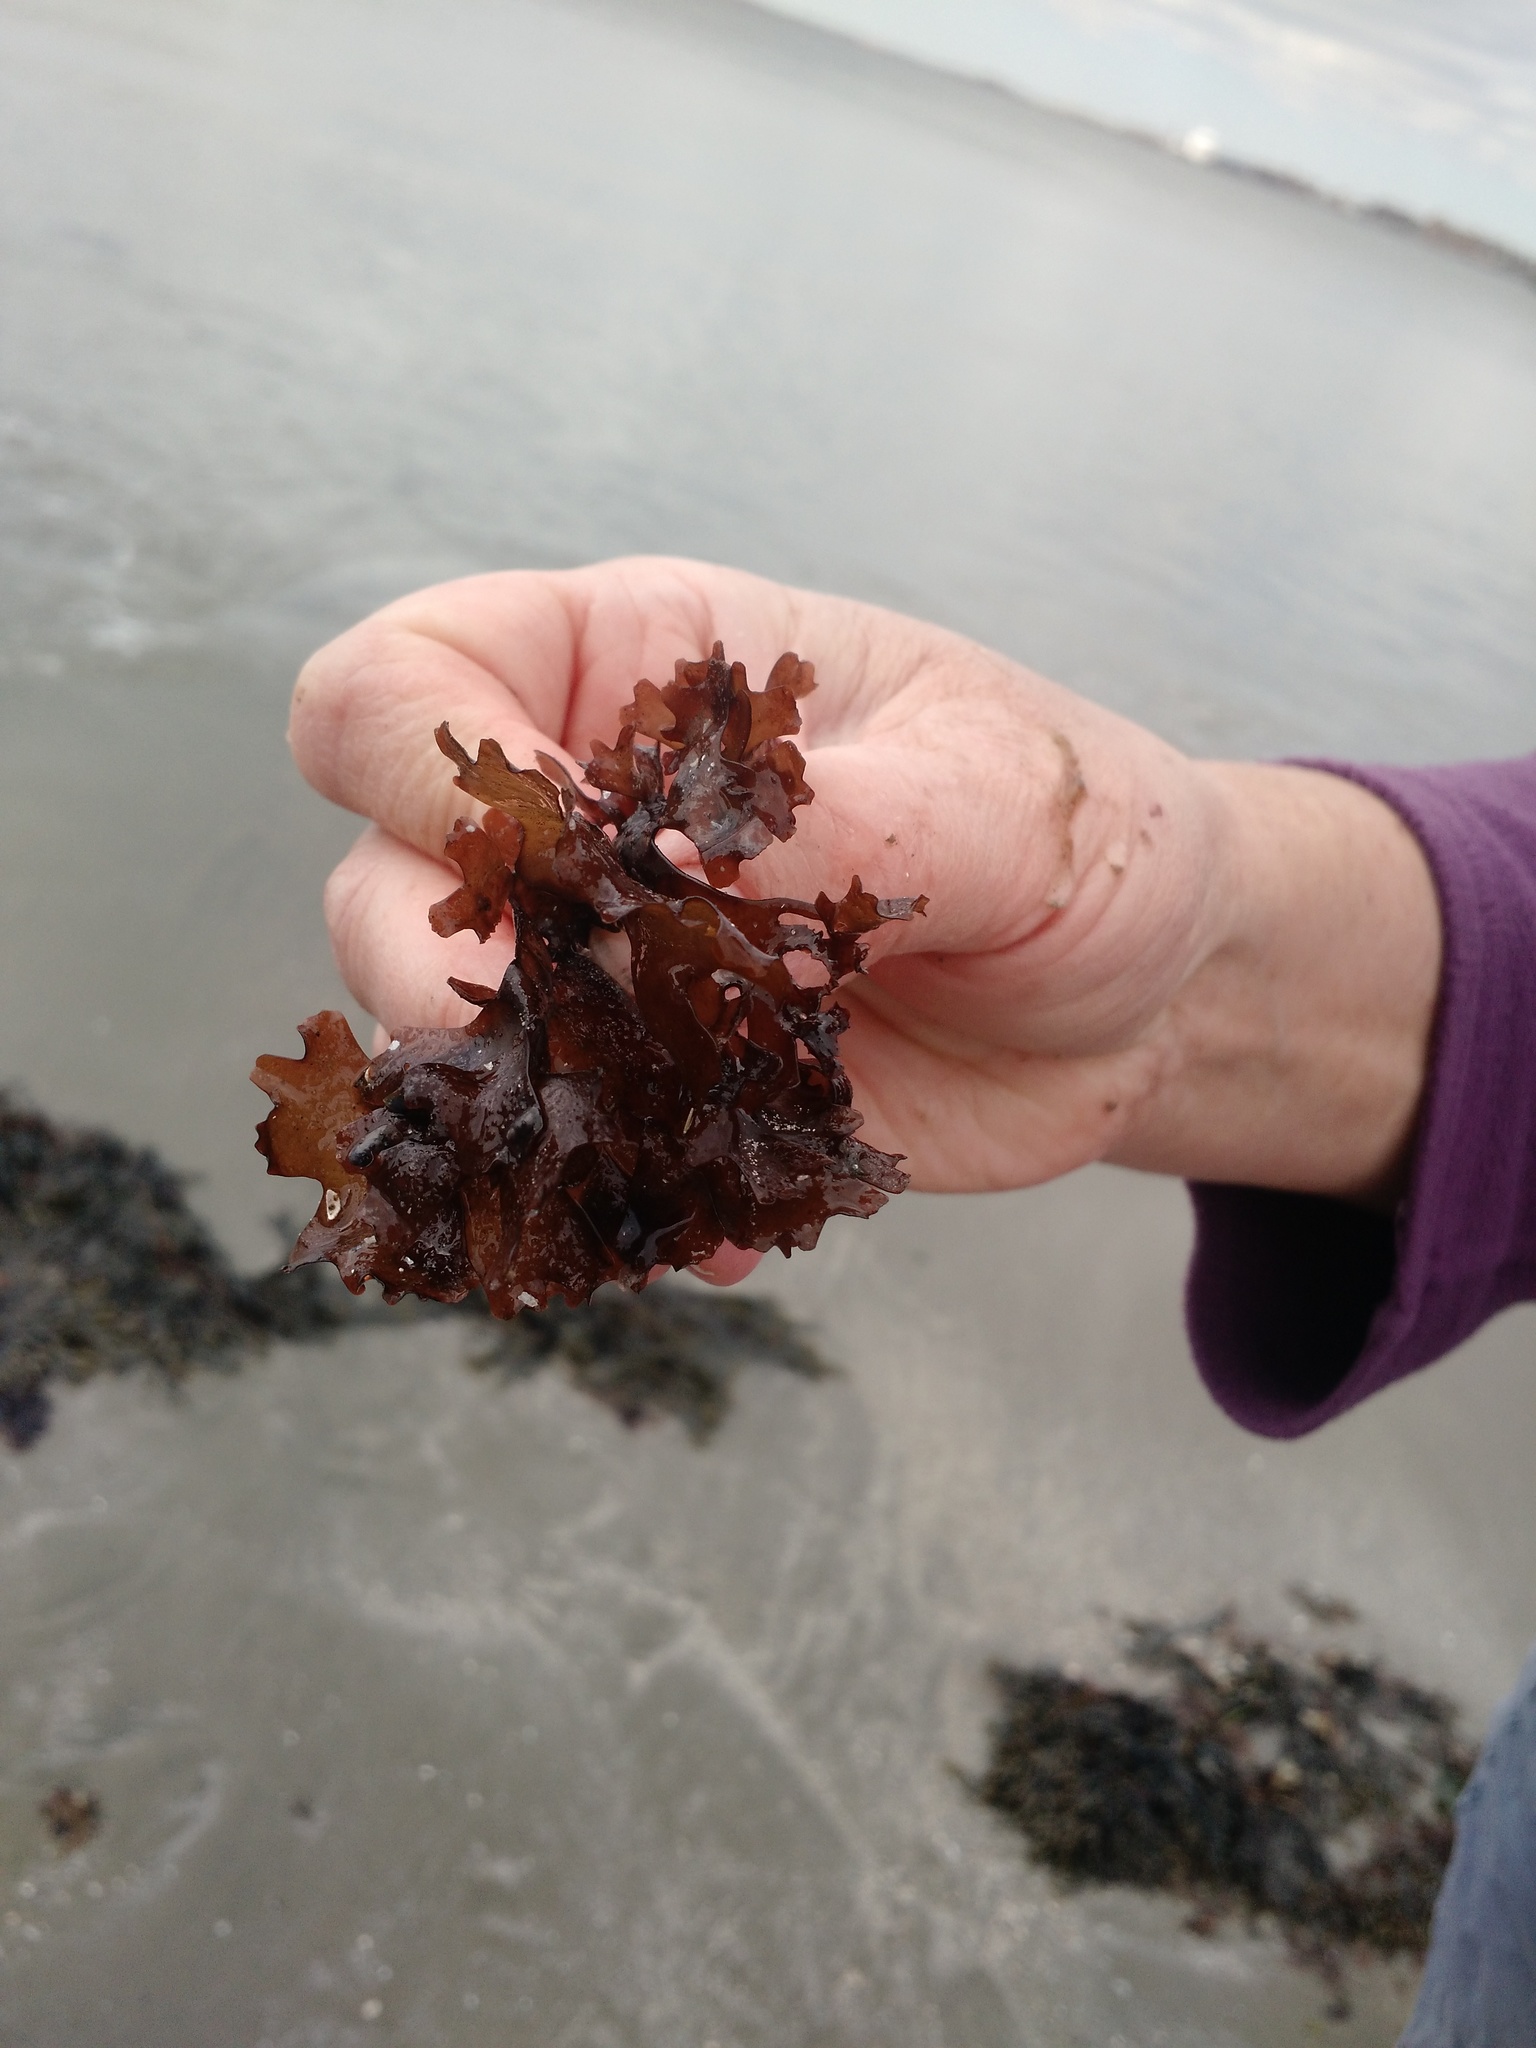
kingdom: Plantae
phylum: Rhodophyta
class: Florideophyceae
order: Gigartinales
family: Gigartinaceae
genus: Chondrus
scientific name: Chondrus crispus
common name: Carrageen
